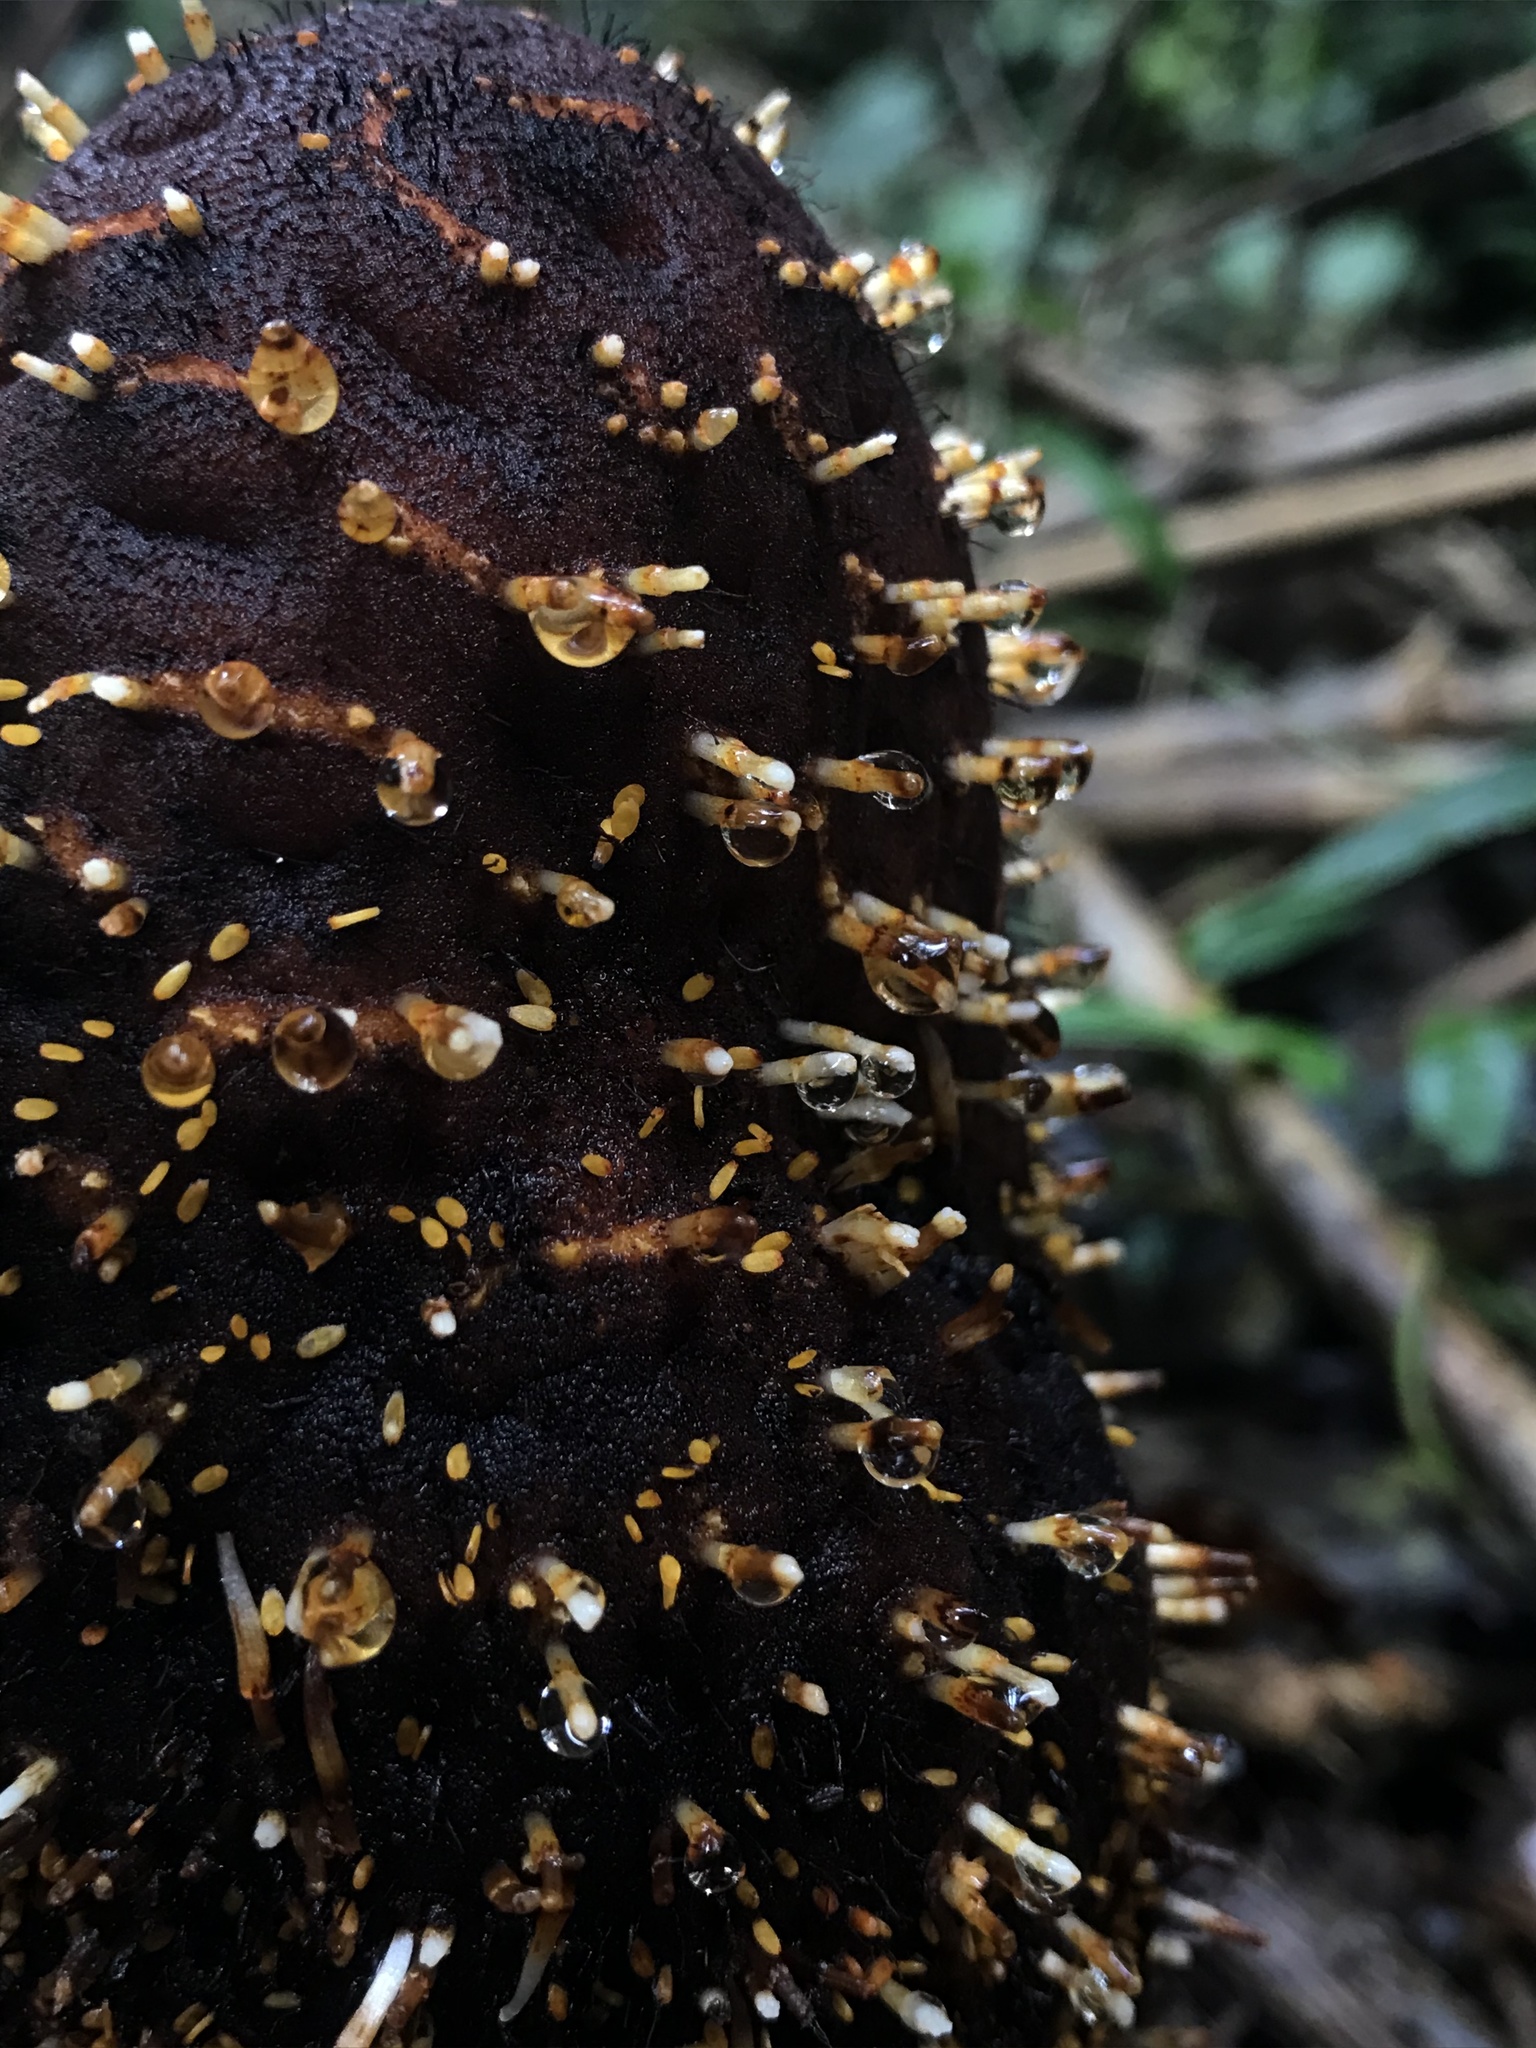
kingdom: Plantae
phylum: Tracheophyta
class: Magnoliopsida
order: Santalales
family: Balanophoraceae
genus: Corynaea
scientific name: Corynaea crassa
